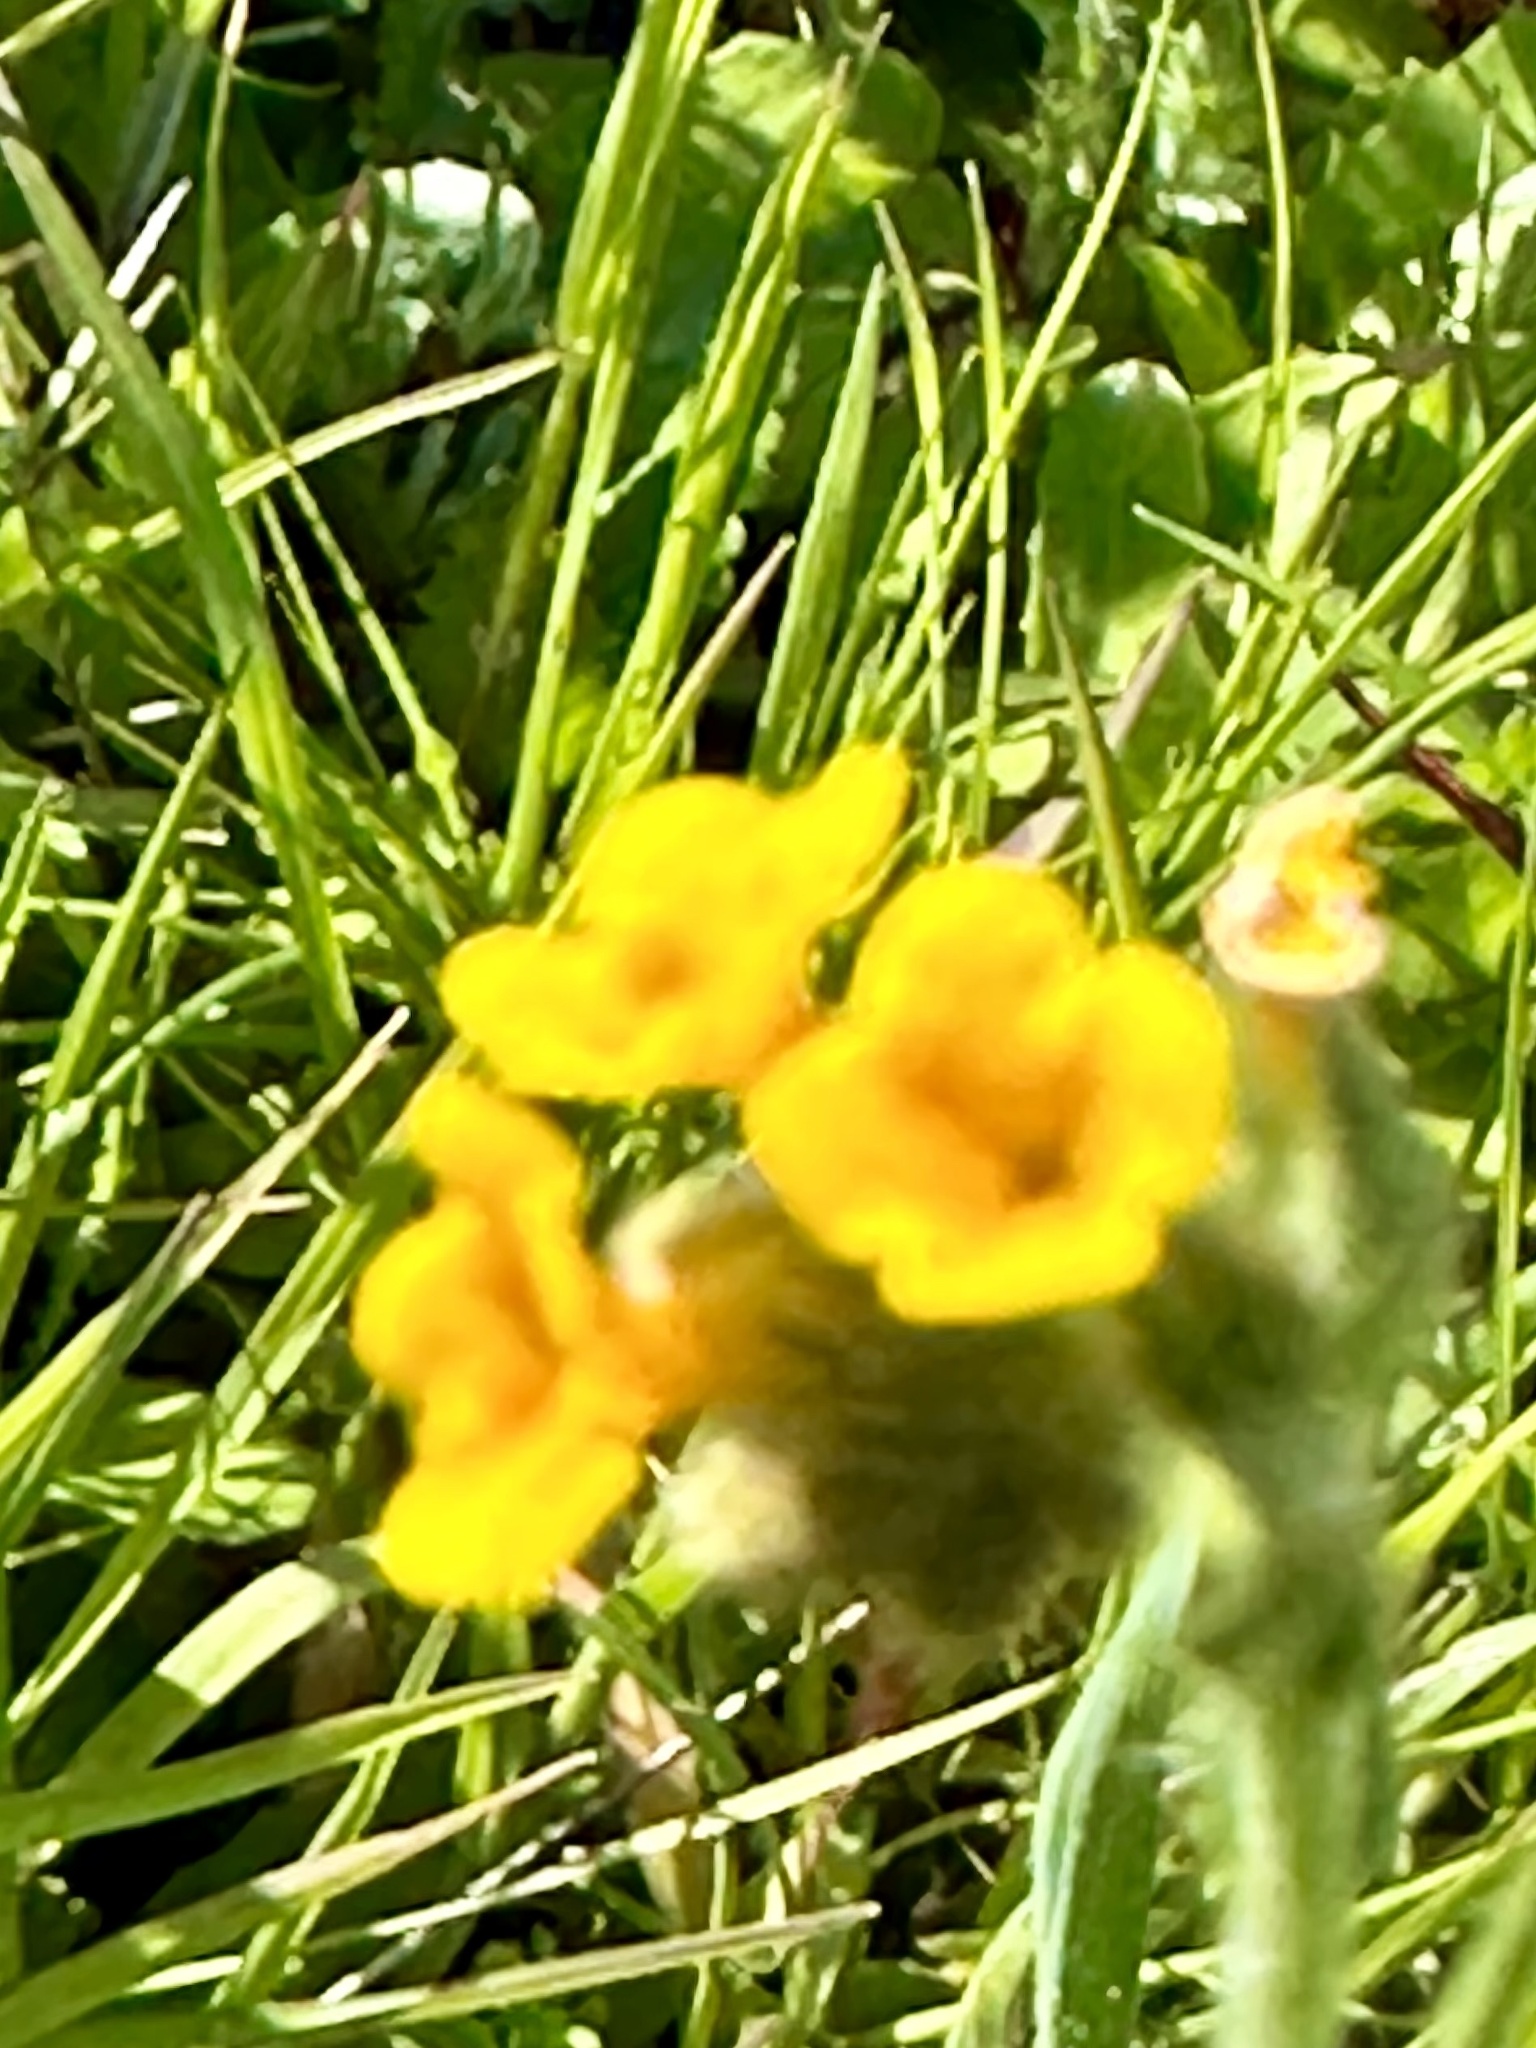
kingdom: Plantae
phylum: Tracheophyta
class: Magnoliopsida
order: Boraginales
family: Boraginaceae
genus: Amsinckia
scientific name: Amsinckia menziesii
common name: Menzies' fiddleneck
